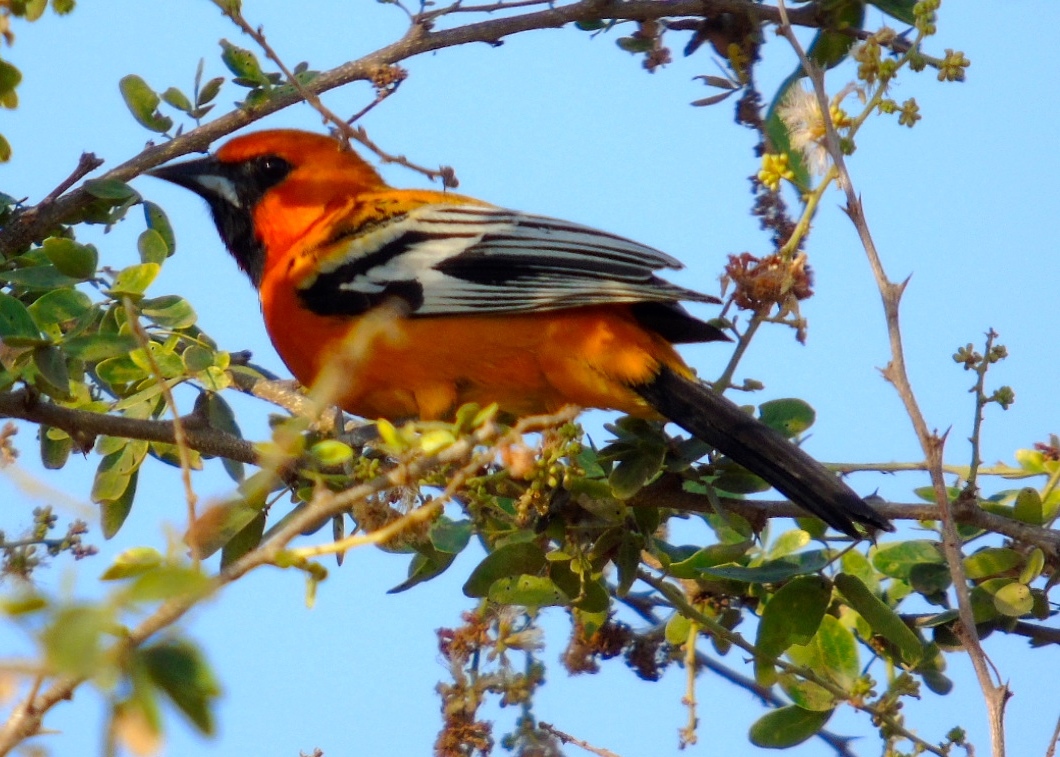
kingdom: Animalia
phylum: Chordata
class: Aves
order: Passeriformes
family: Icteridae
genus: Icterus
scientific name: Icterus pustulatus
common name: Streak-backed oriole
